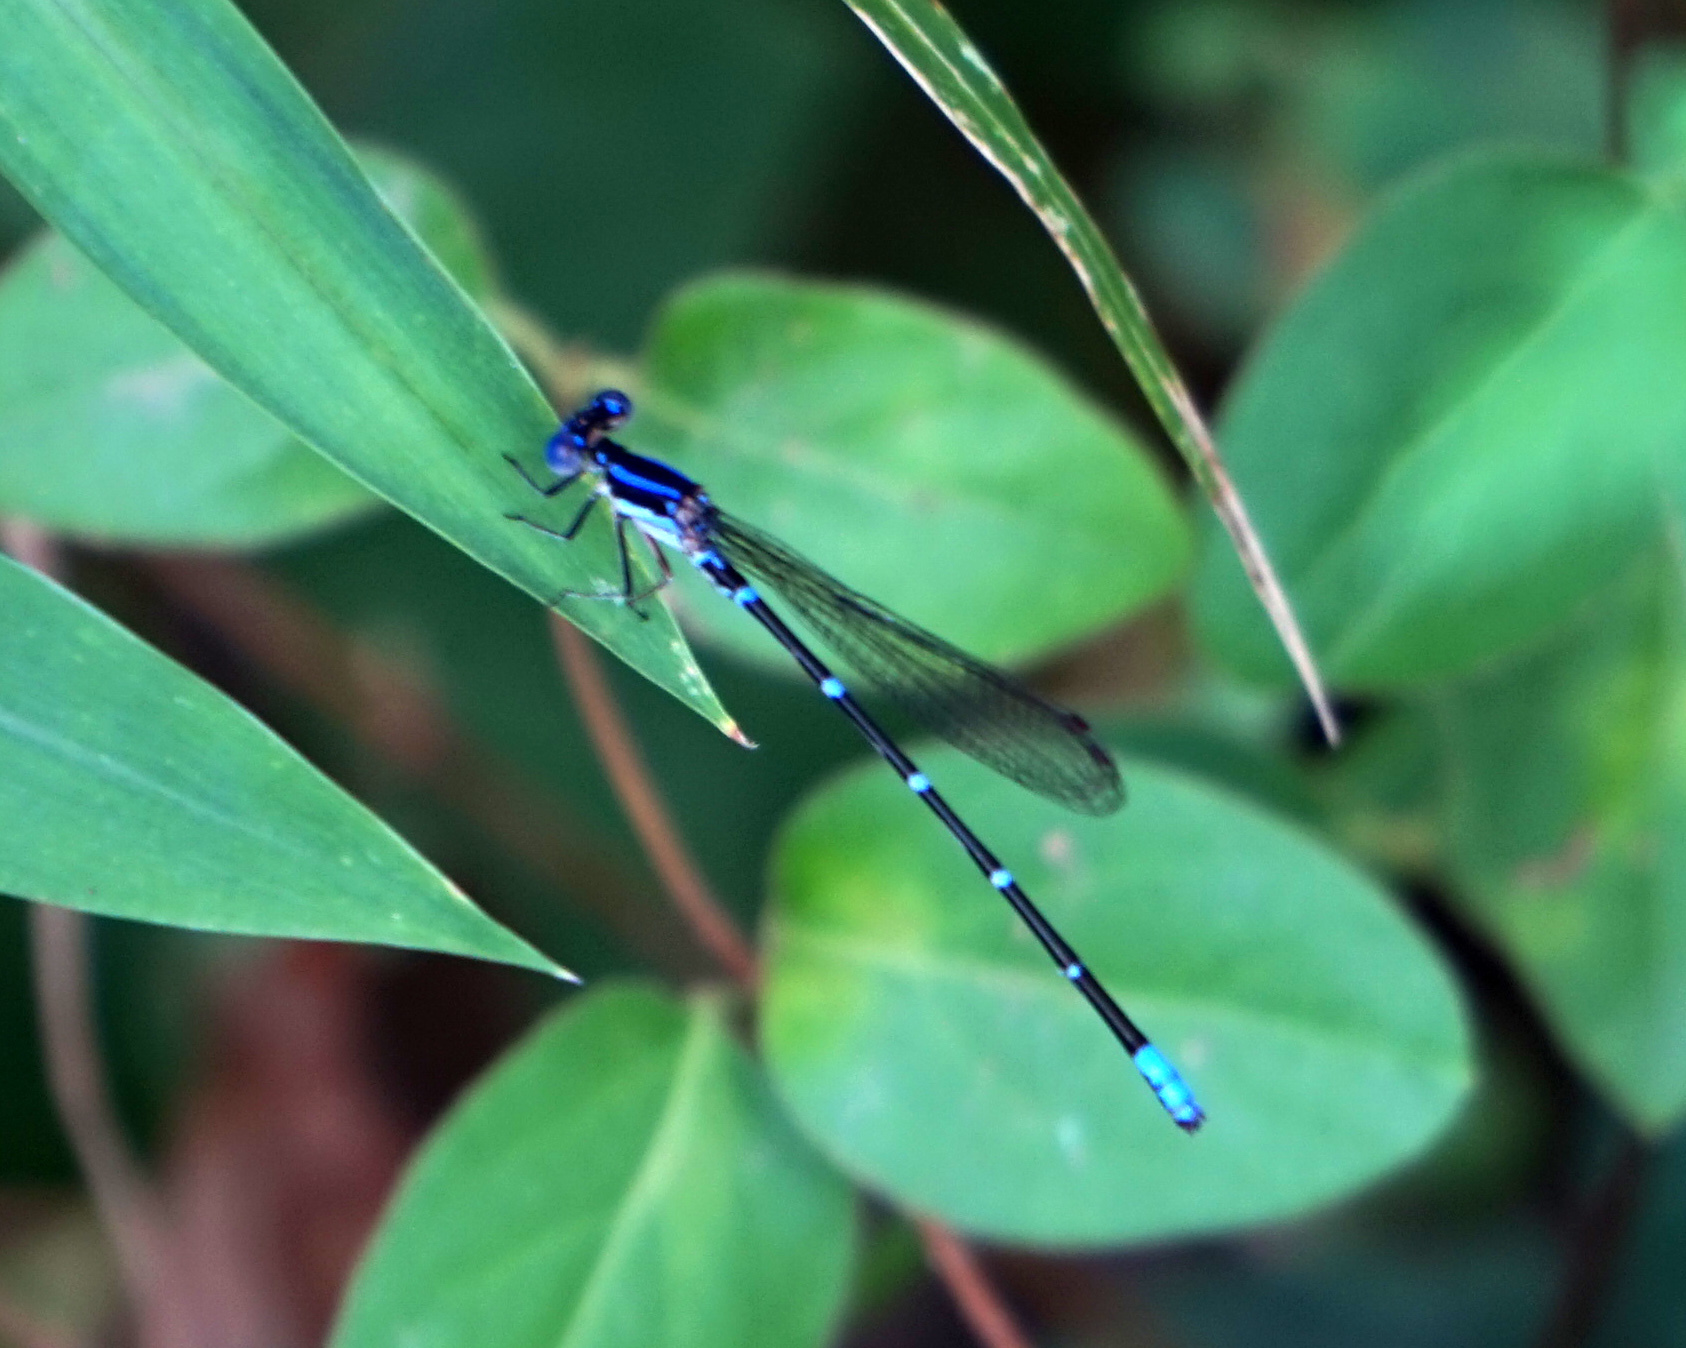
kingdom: Animalia
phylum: Arthropoda
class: Insecta
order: Odonata
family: Coenagrionidae
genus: Argia
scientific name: Argia sedula
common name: Blue-ringed dancer
